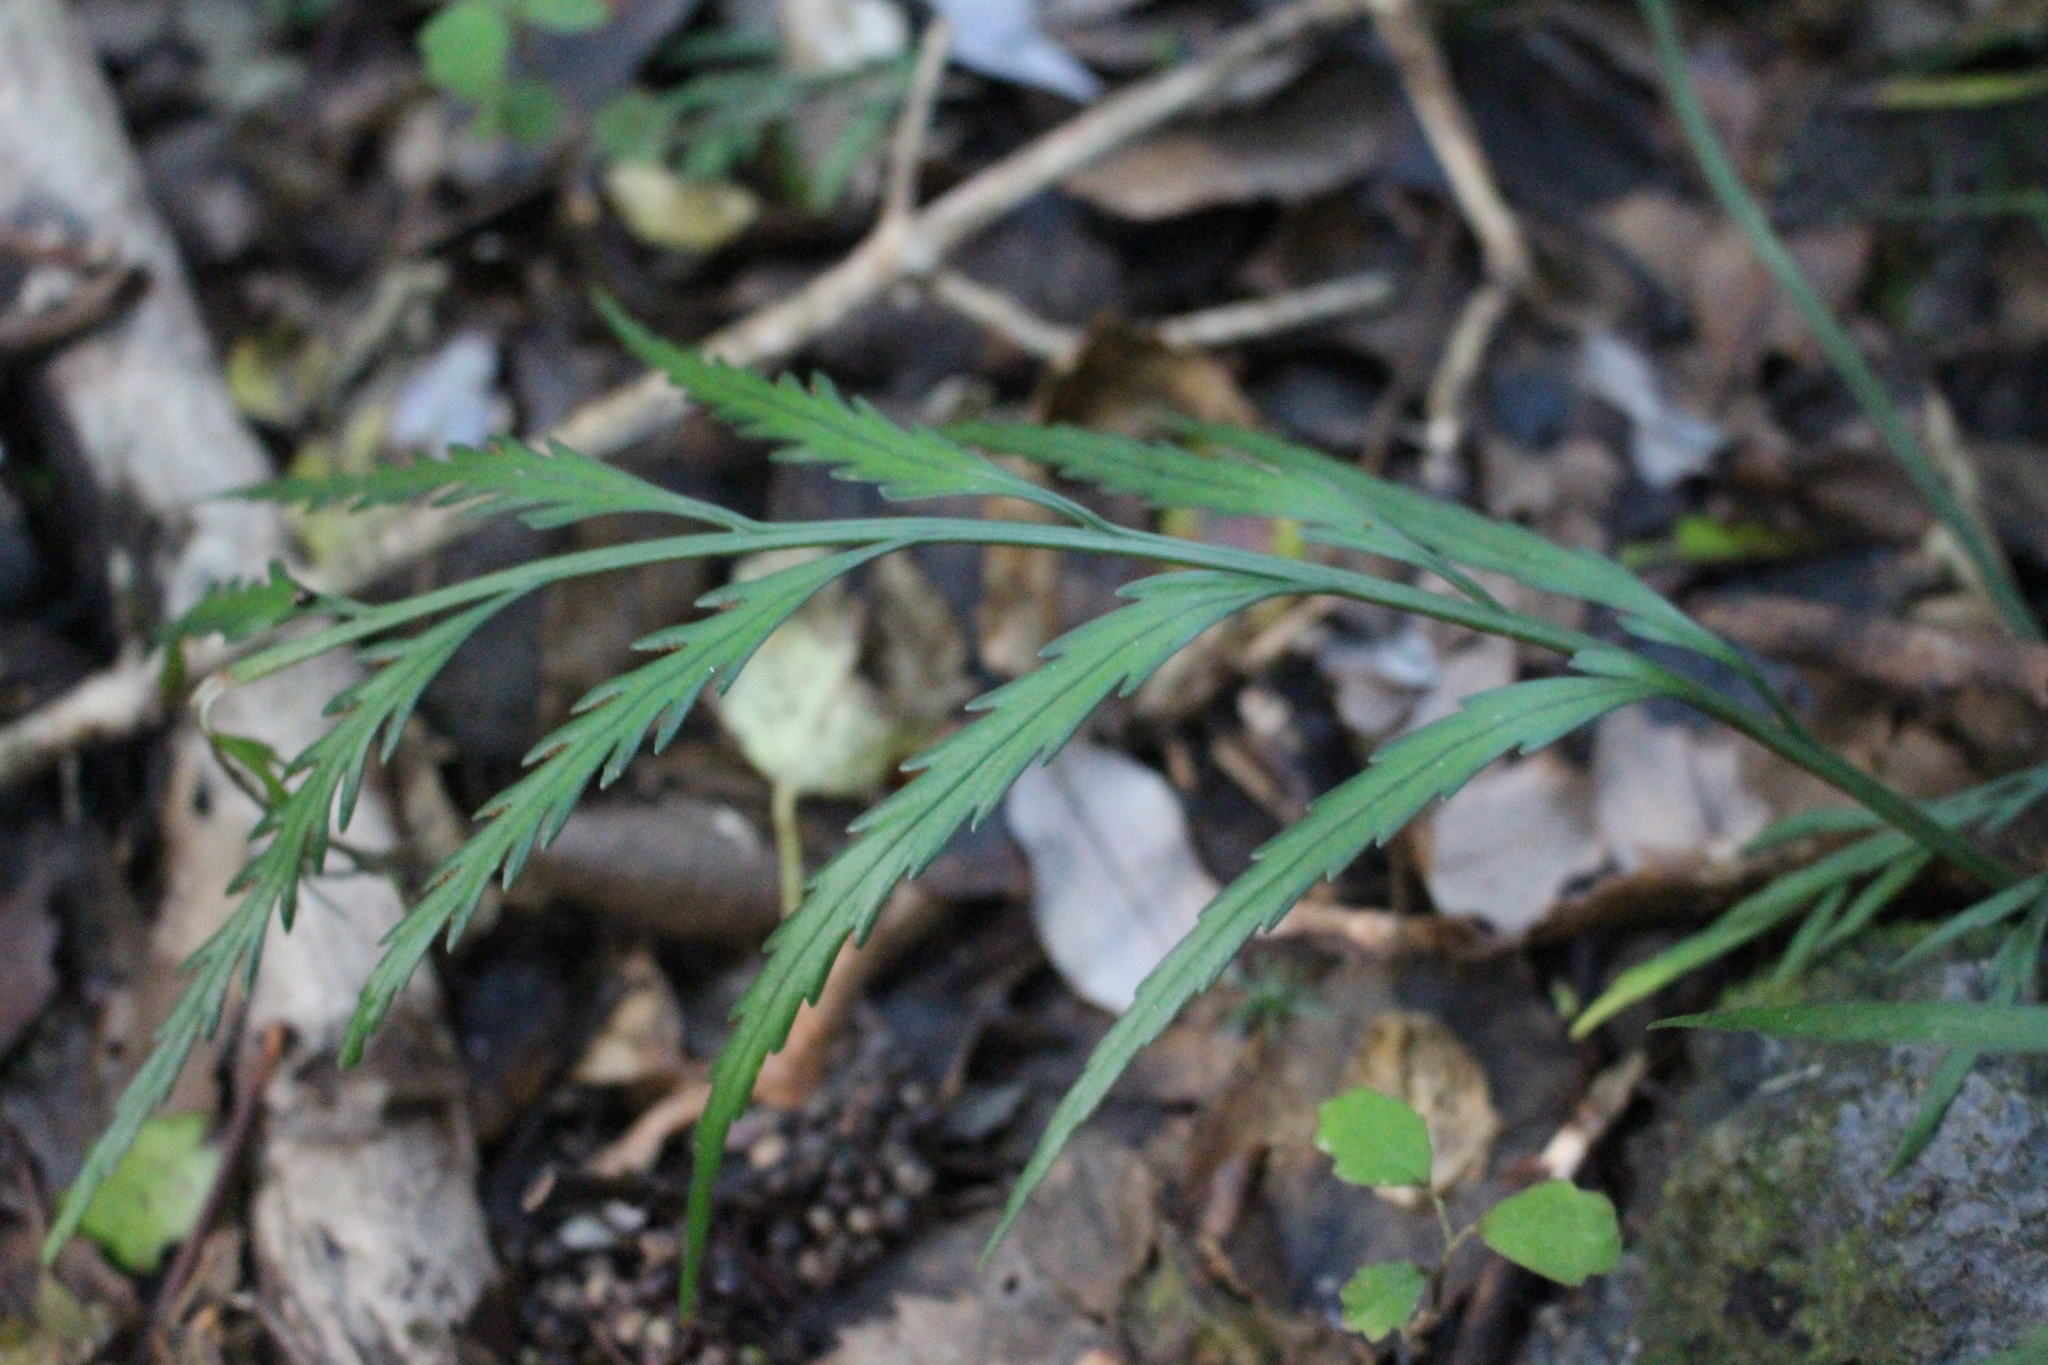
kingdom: Plantae
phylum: Tracheophyta
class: Polypodiopsida
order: Polypodiales
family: Aspleniaceae
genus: Asplenium
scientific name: Asplenium flaccidum
